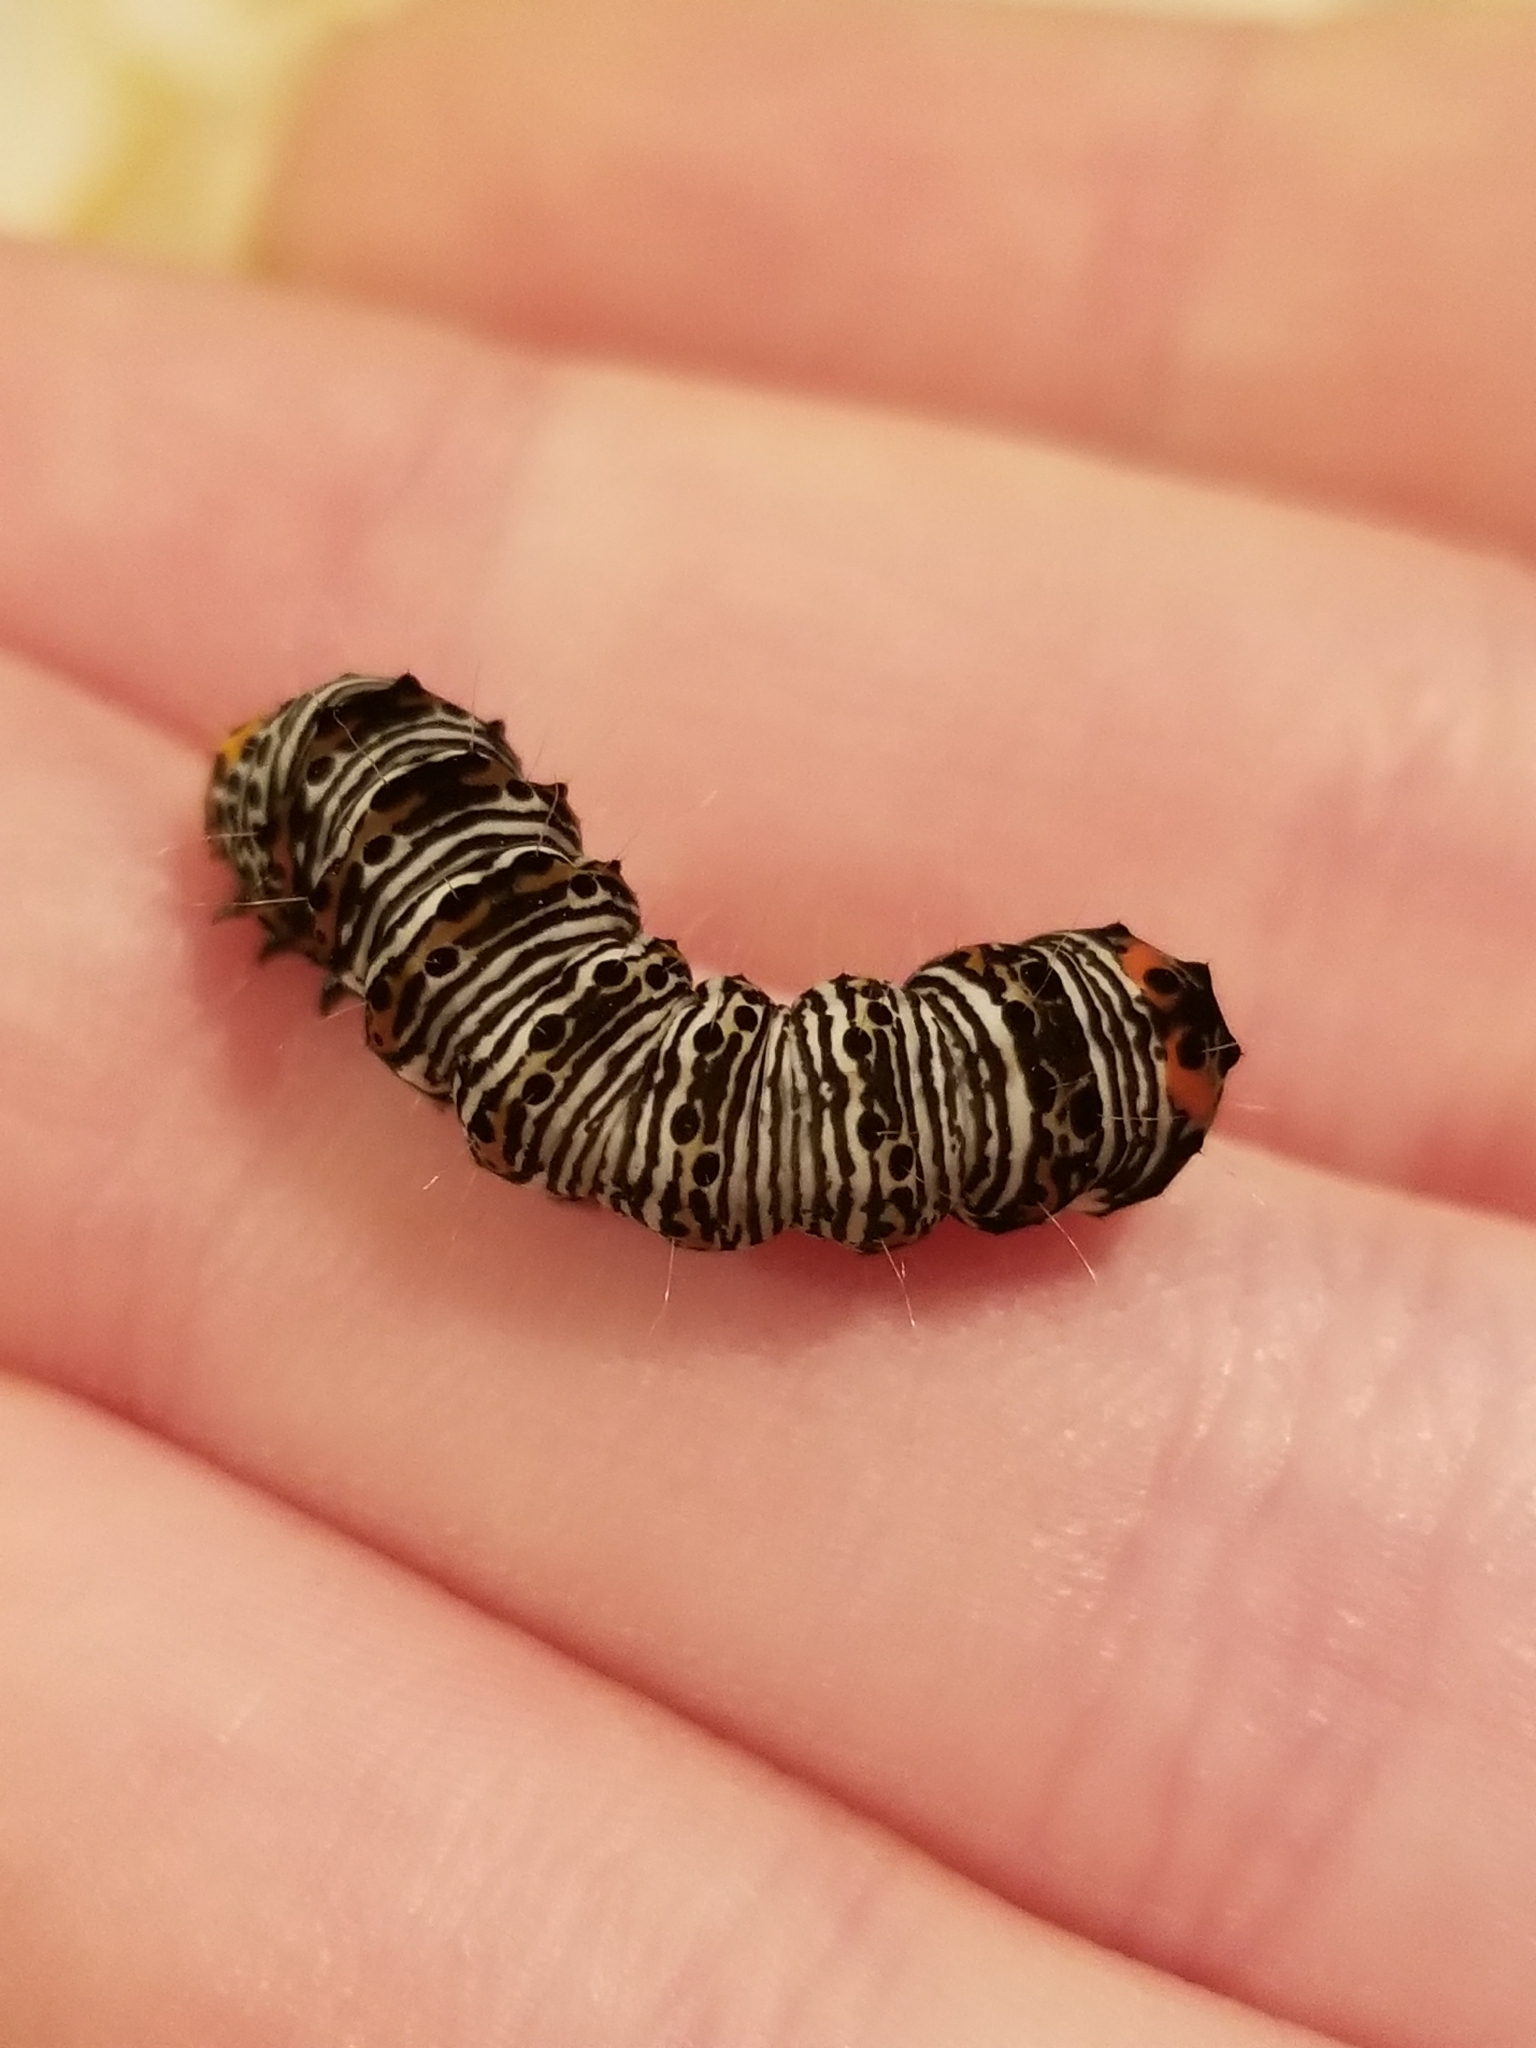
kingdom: Animalia
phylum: Arthropoda
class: Insecta
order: Lepidoptera
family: Noctuidae
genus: Alypia
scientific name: Alypia octomaculata
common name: Eight-spotted forester
